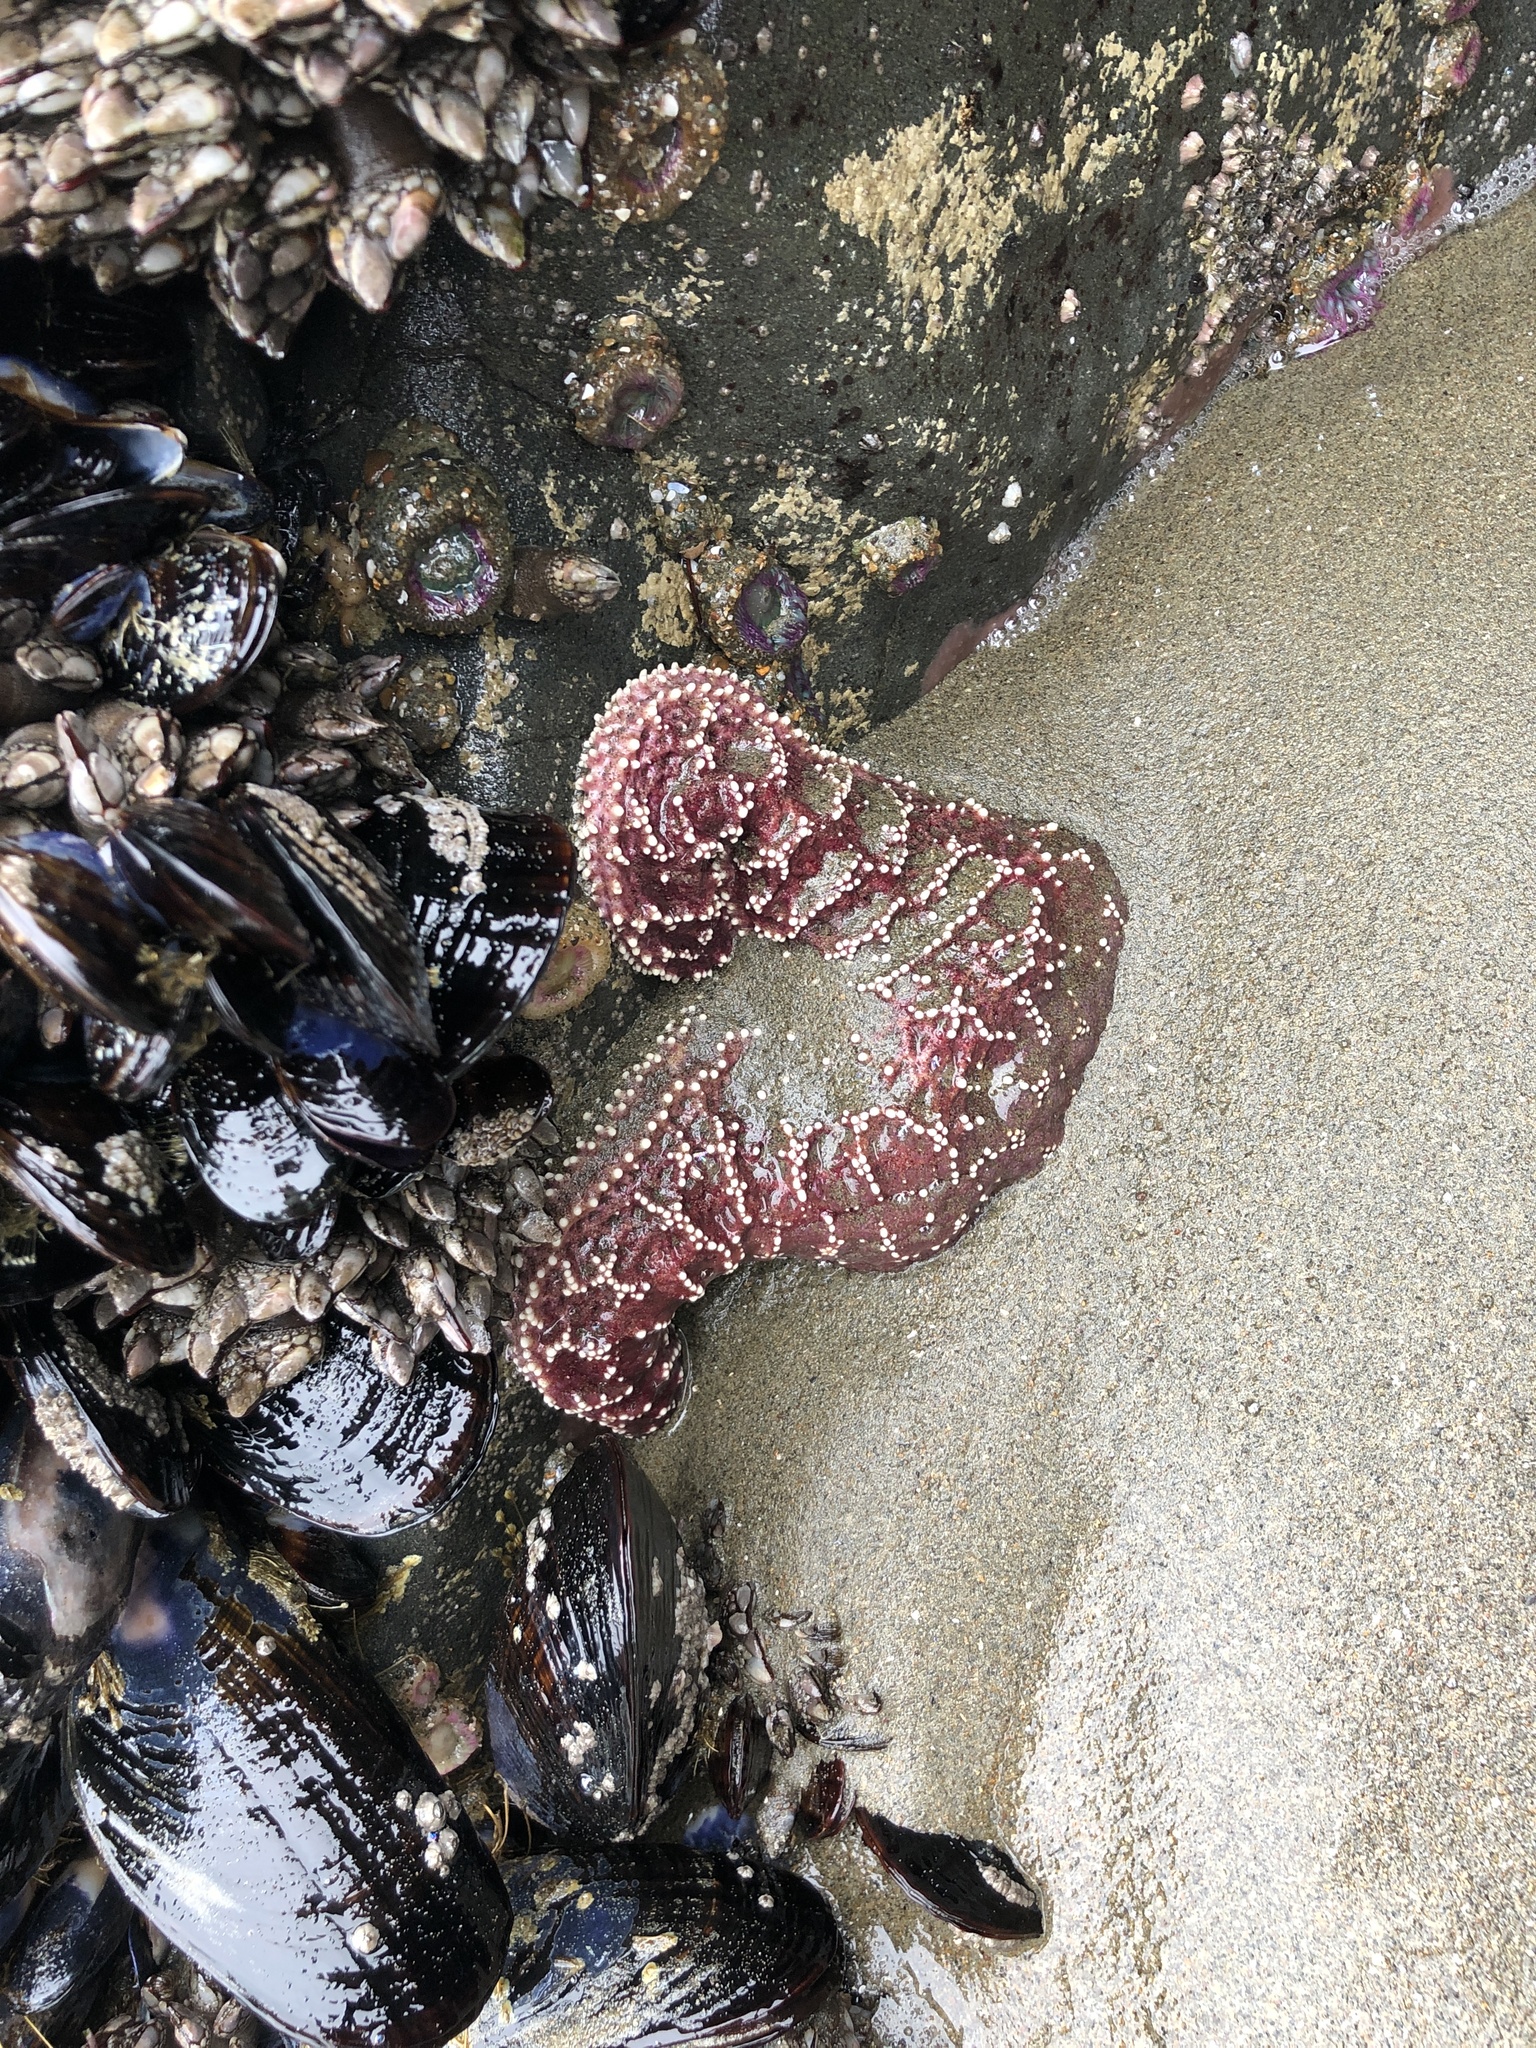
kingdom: Animalia
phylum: Echinodermata
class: Asteroidea
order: Forcipulatida
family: Asteriidae
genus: Pisaster
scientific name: Pisaster ochraceus
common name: Ochre stars
